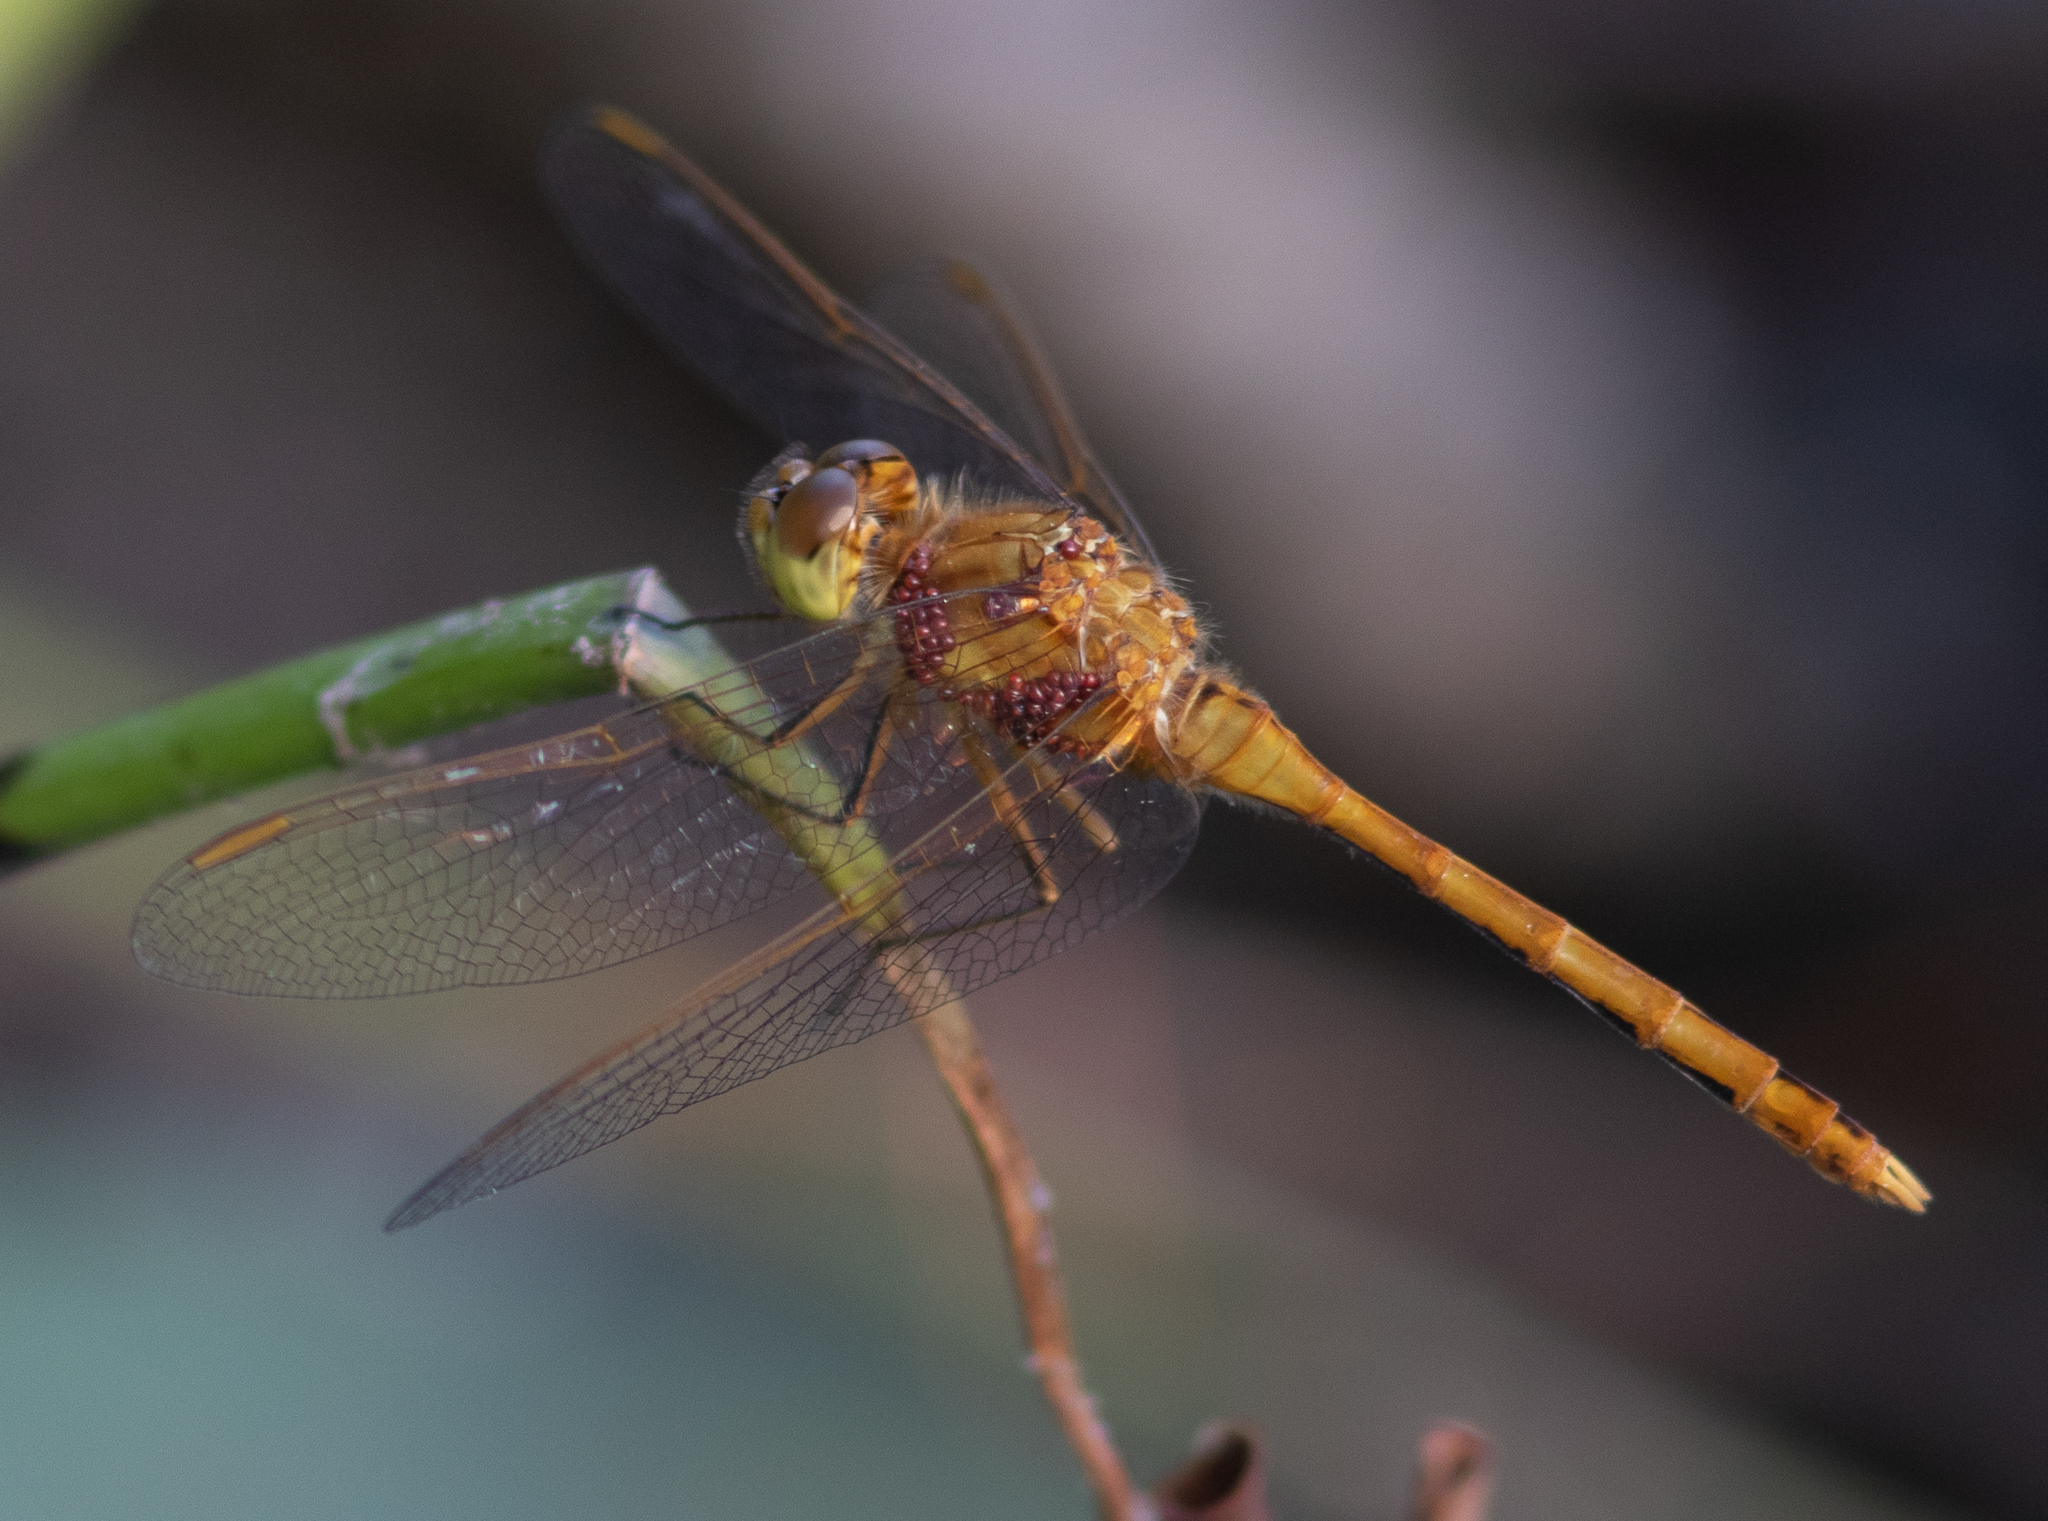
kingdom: Animalia
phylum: Arthropoda
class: Insecta
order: Odonata
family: Libellulidae
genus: Sympetrum
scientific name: Sympetrum costiferum
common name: Saffron-winged meadowhawk
